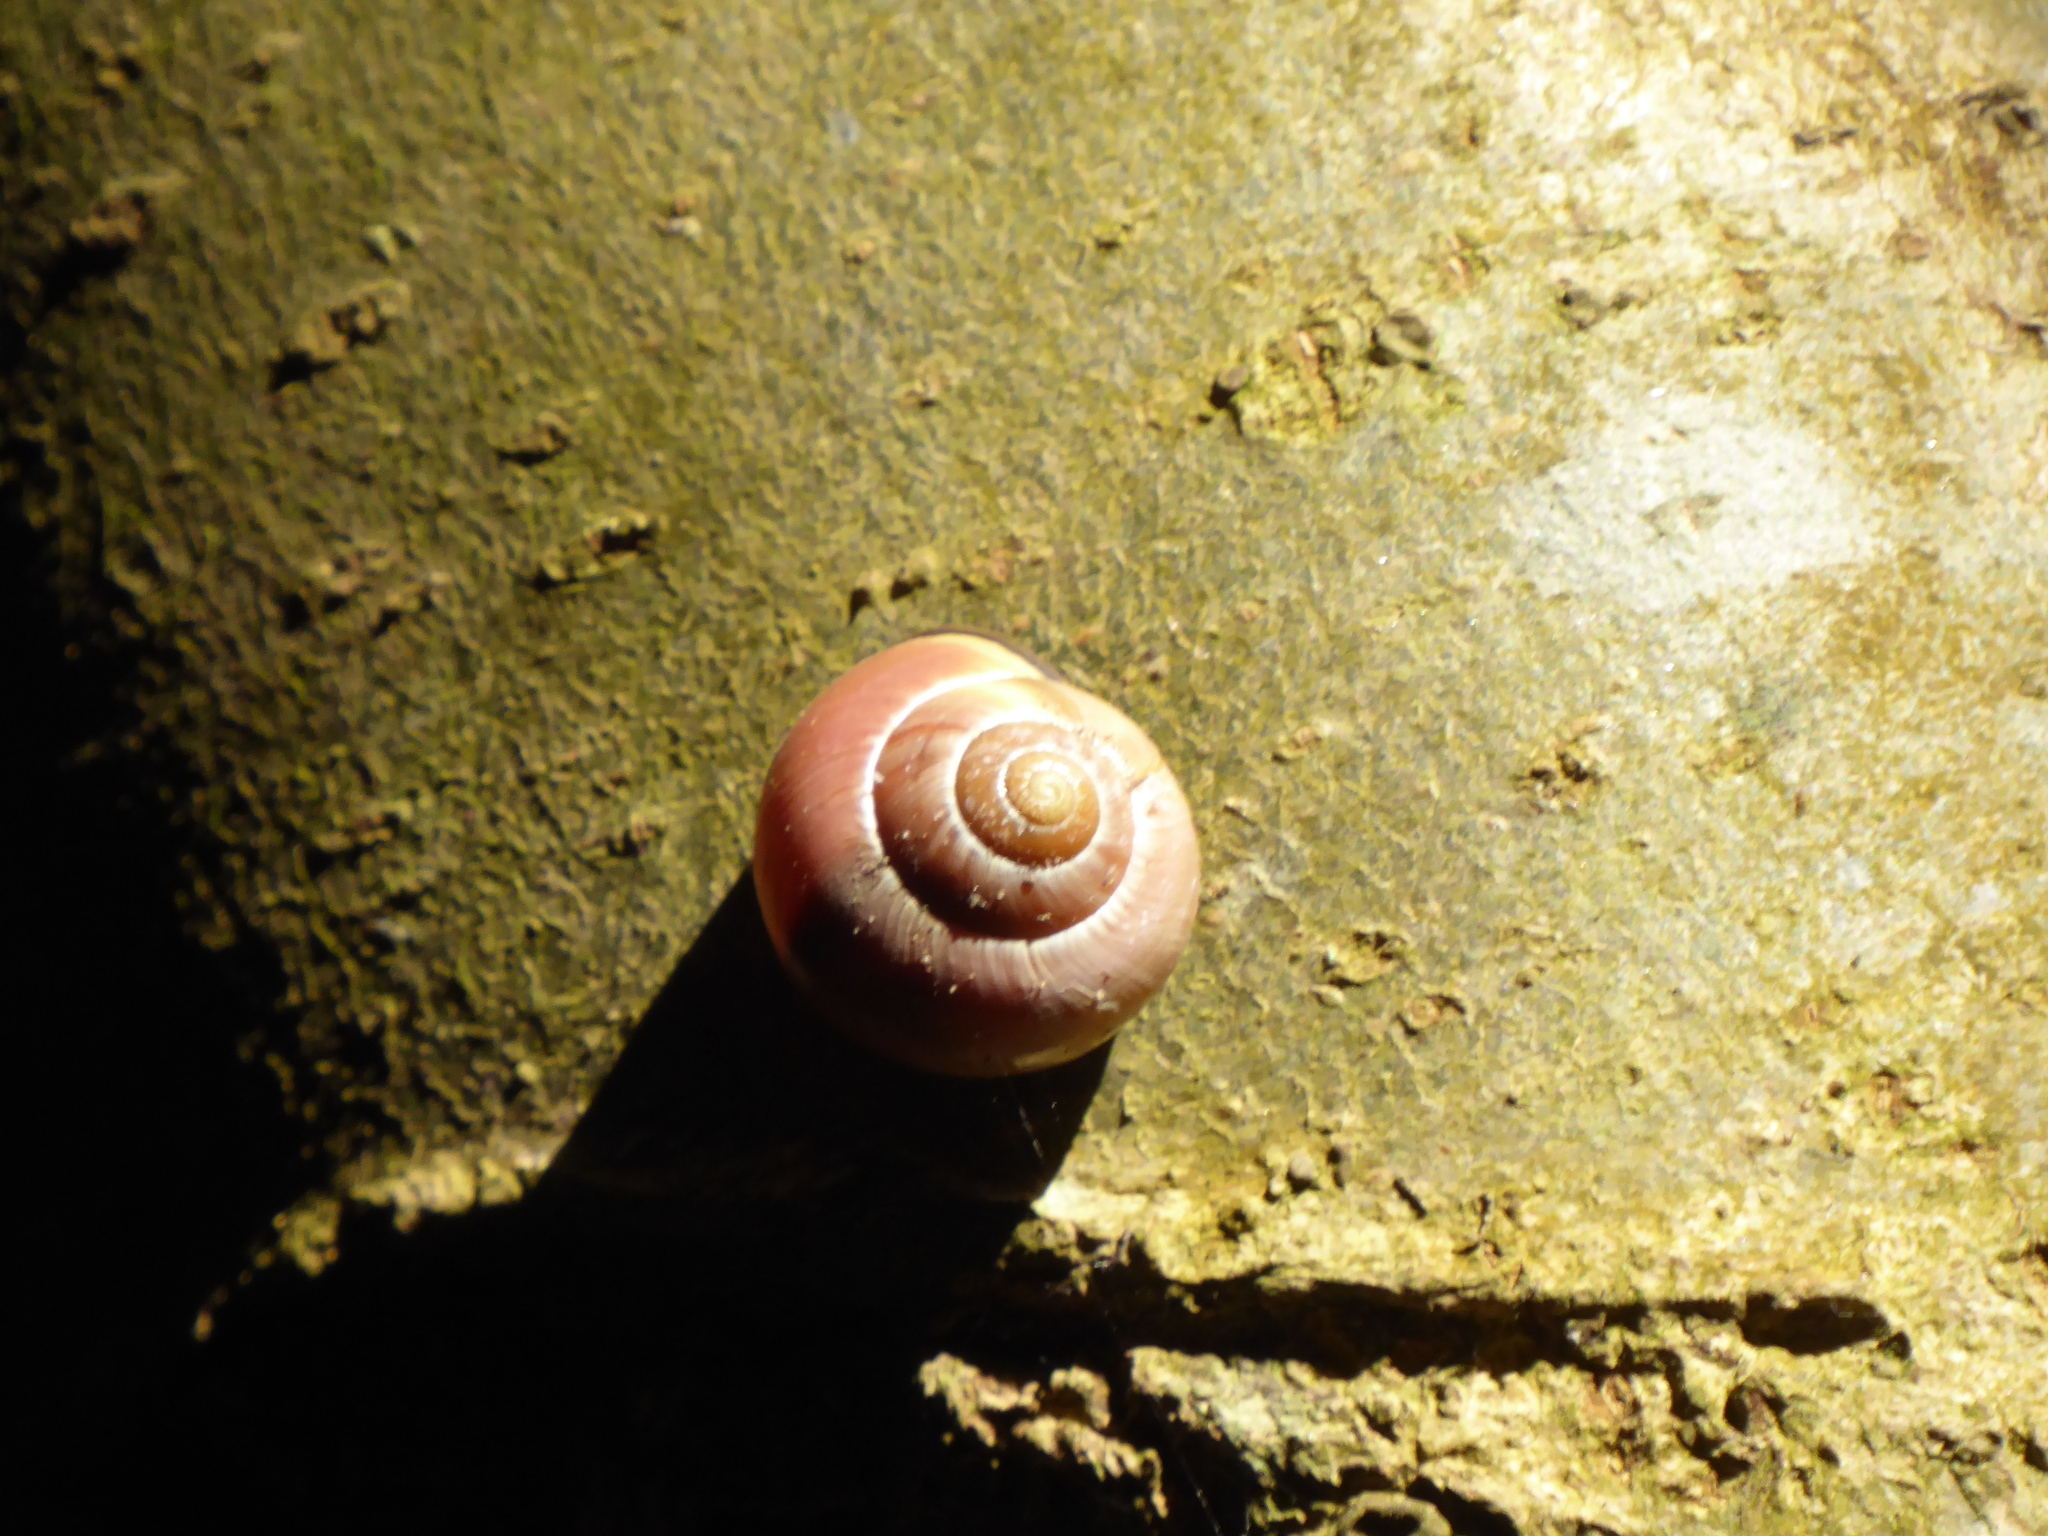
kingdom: Animalia
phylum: Mollusca
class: Gastropoda
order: Stylommatophora
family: Helicidae
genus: Cepaea
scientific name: Cepaea nemoralis
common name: Grovesnail
